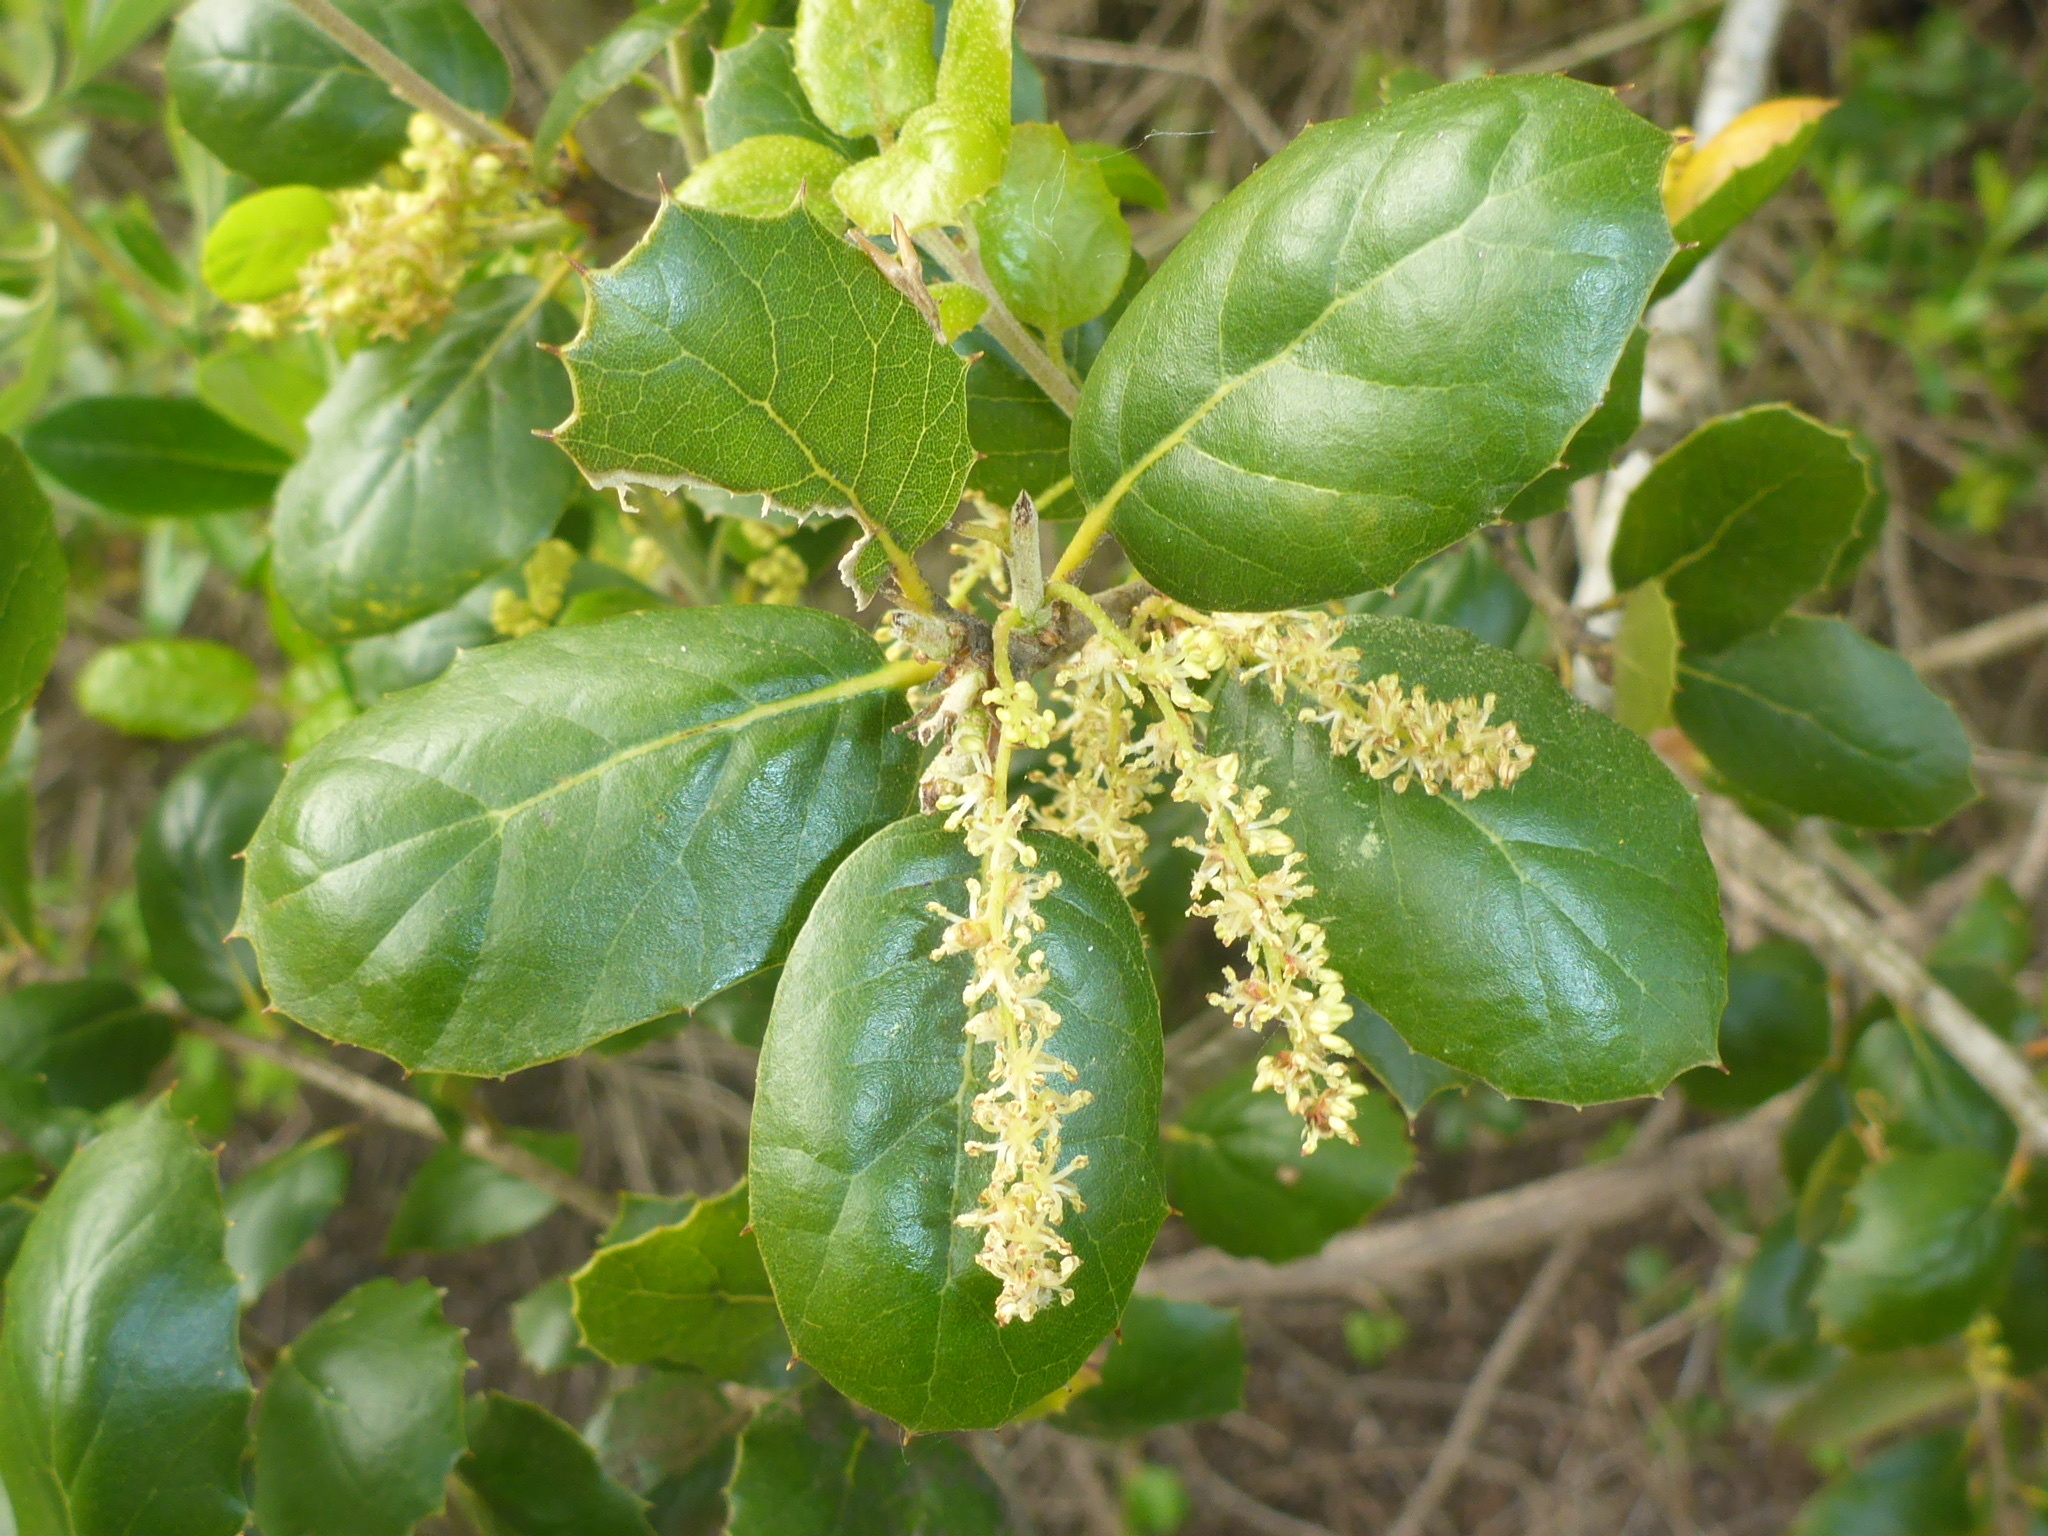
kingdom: Plantae
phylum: Tracheophyta
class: Magnoliopsida
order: Fagales
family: Fagaceae
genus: Quercus
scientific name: Quercus agrifolia
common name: California live oak
